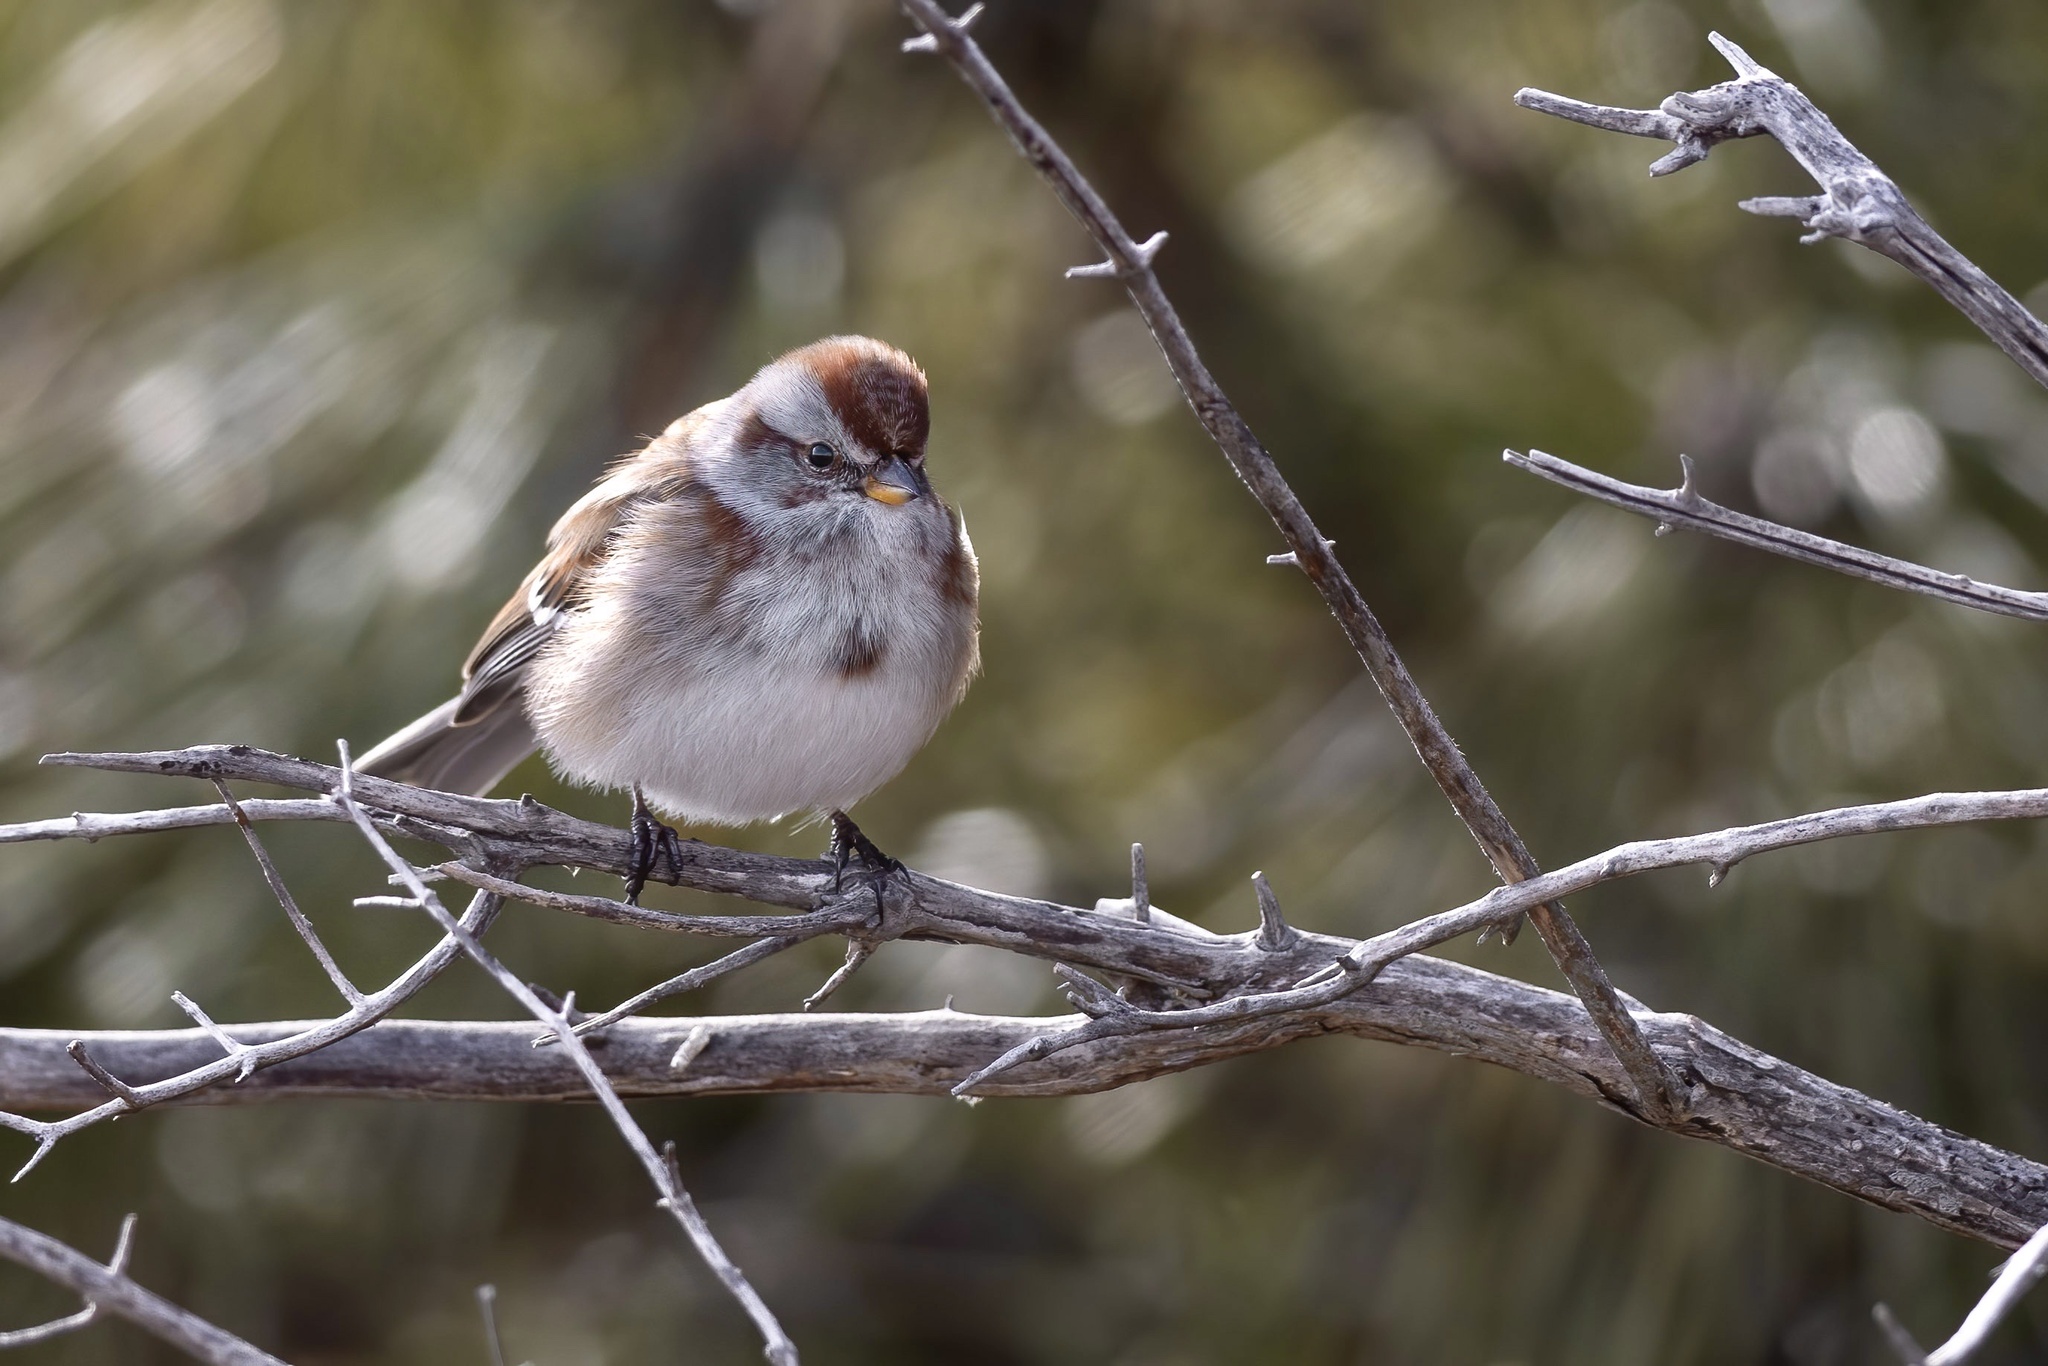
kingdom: Animalia
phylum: Chordata
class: Aves
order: Passeriformes
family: Passerellidae
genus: Spizelloides
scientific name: Spizelloides arborea
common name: American tree sparrow
